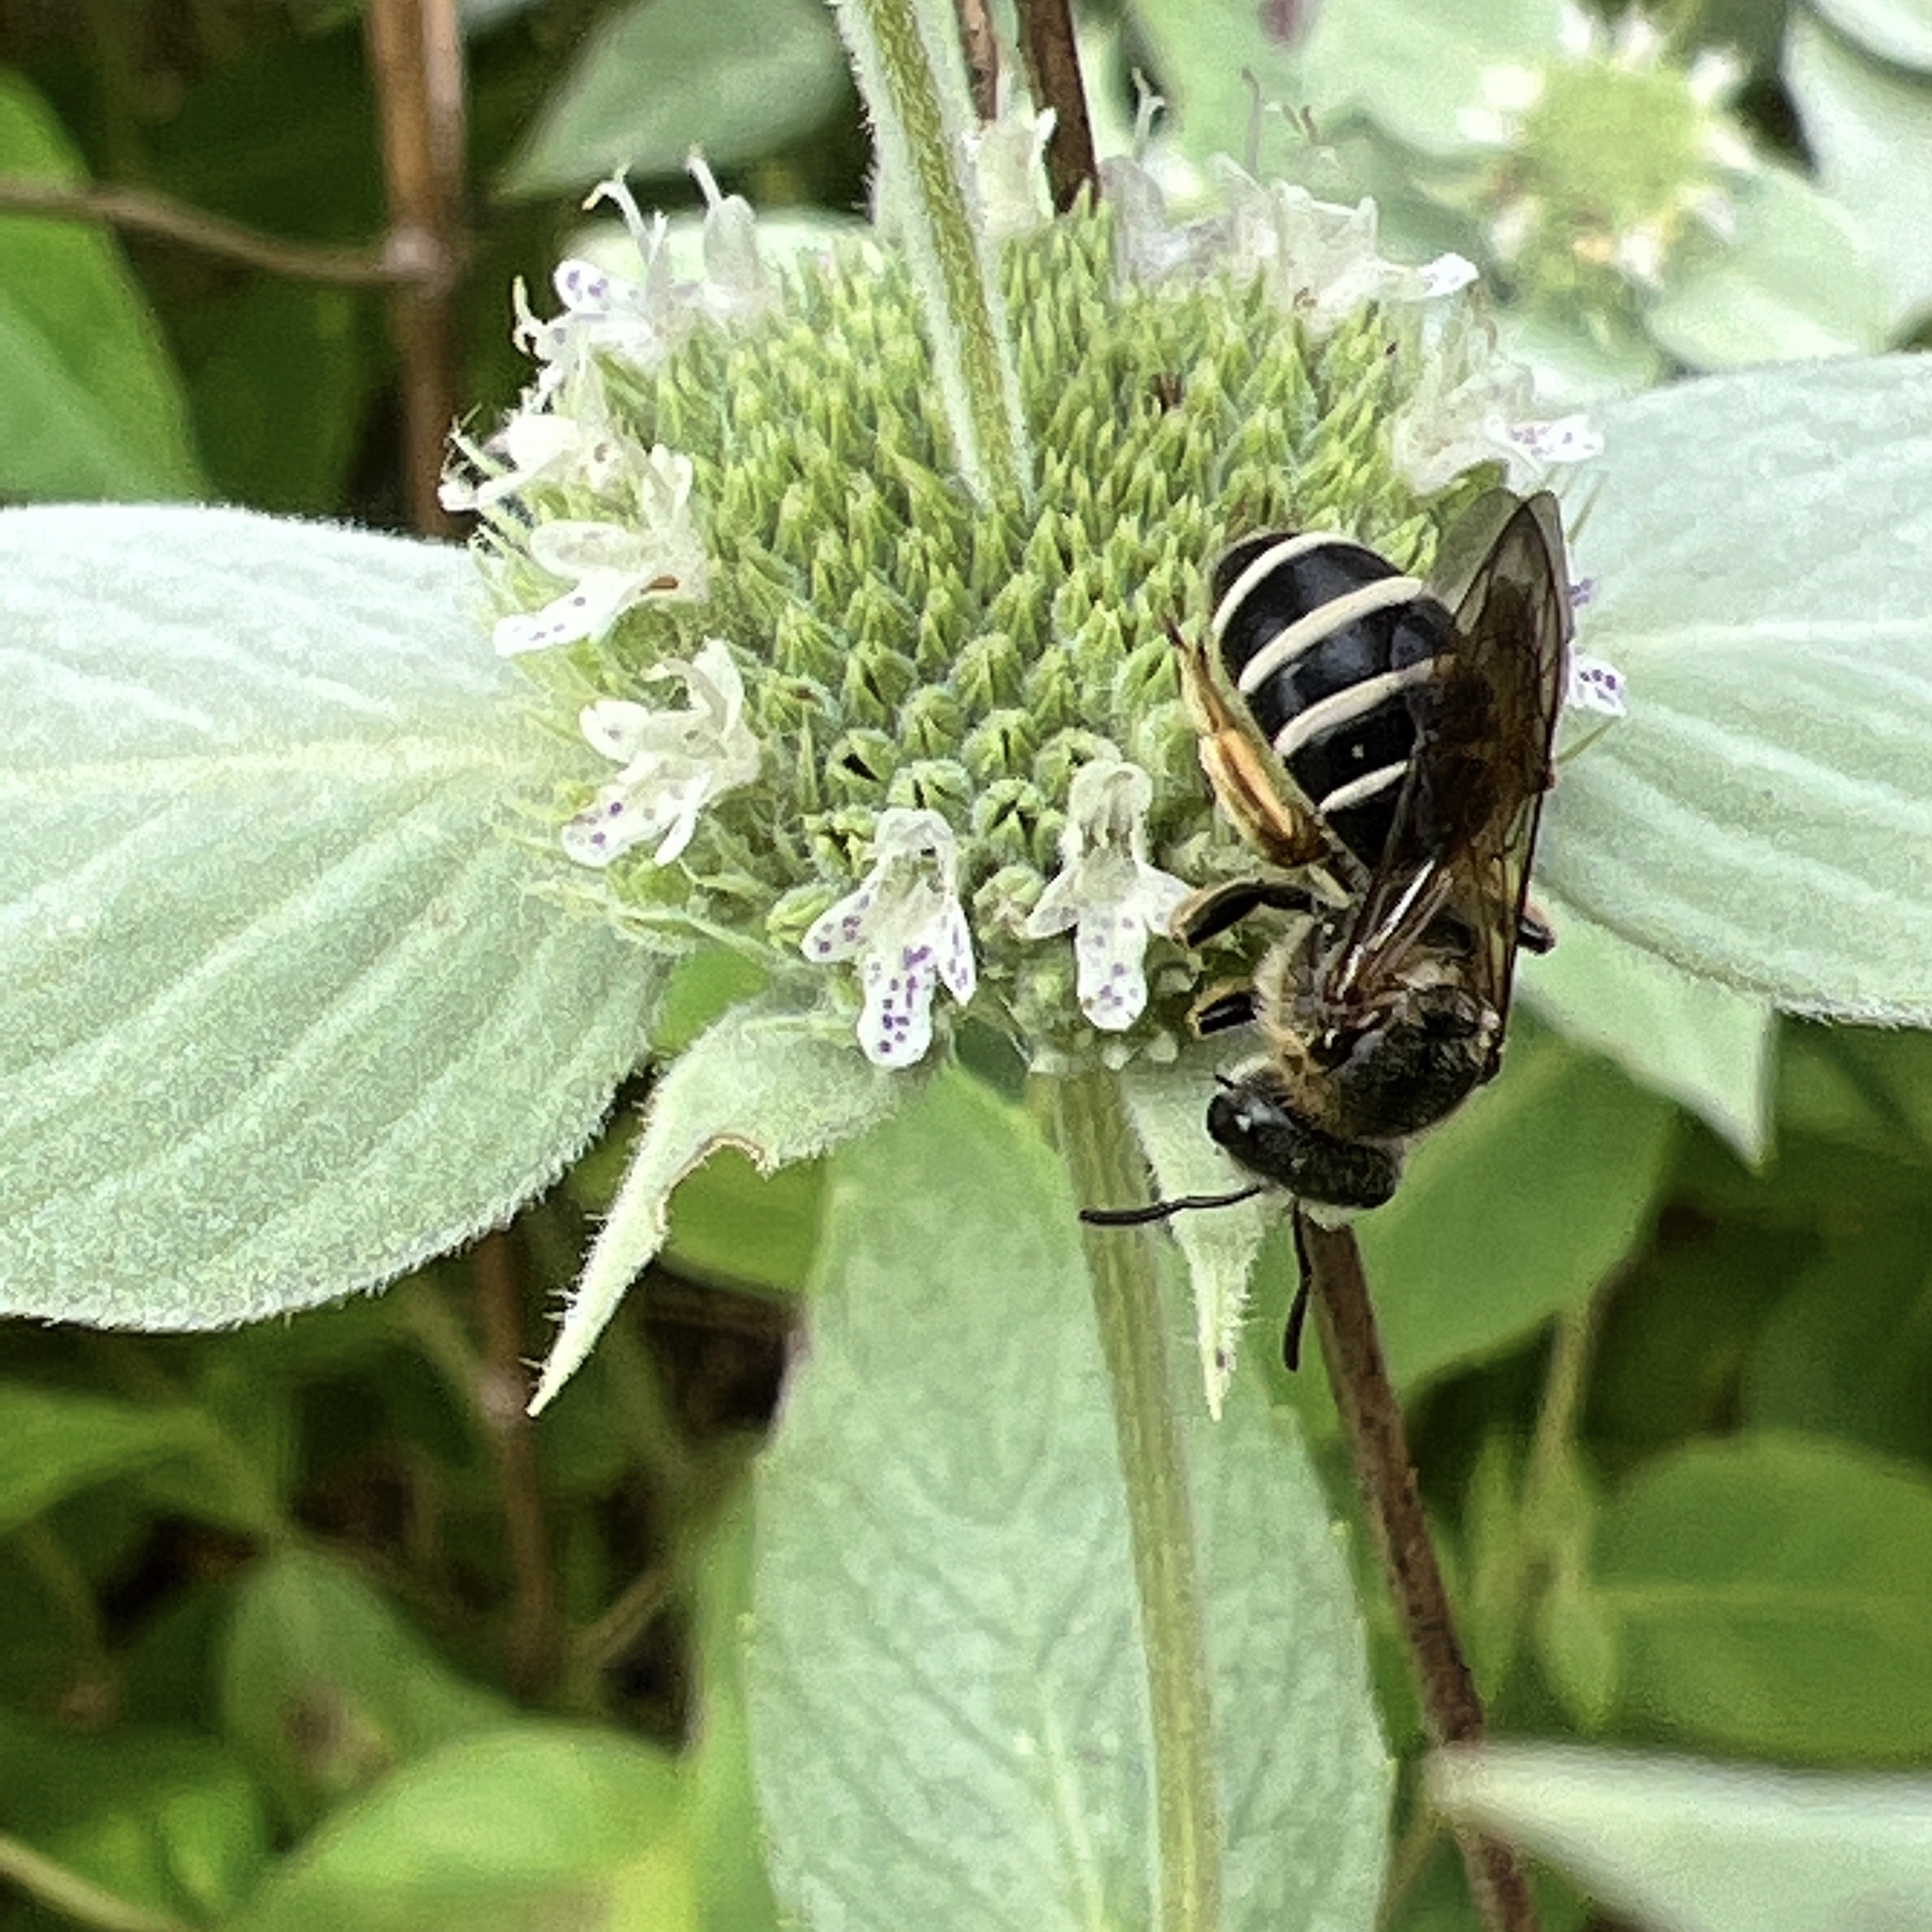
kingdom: Animalia
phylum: Arthropoda
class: Insecta
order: Hymenoptera
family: Halictidae
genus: Halictus
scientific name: Halictus rubicundus
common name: Orange-legged furrow bee
